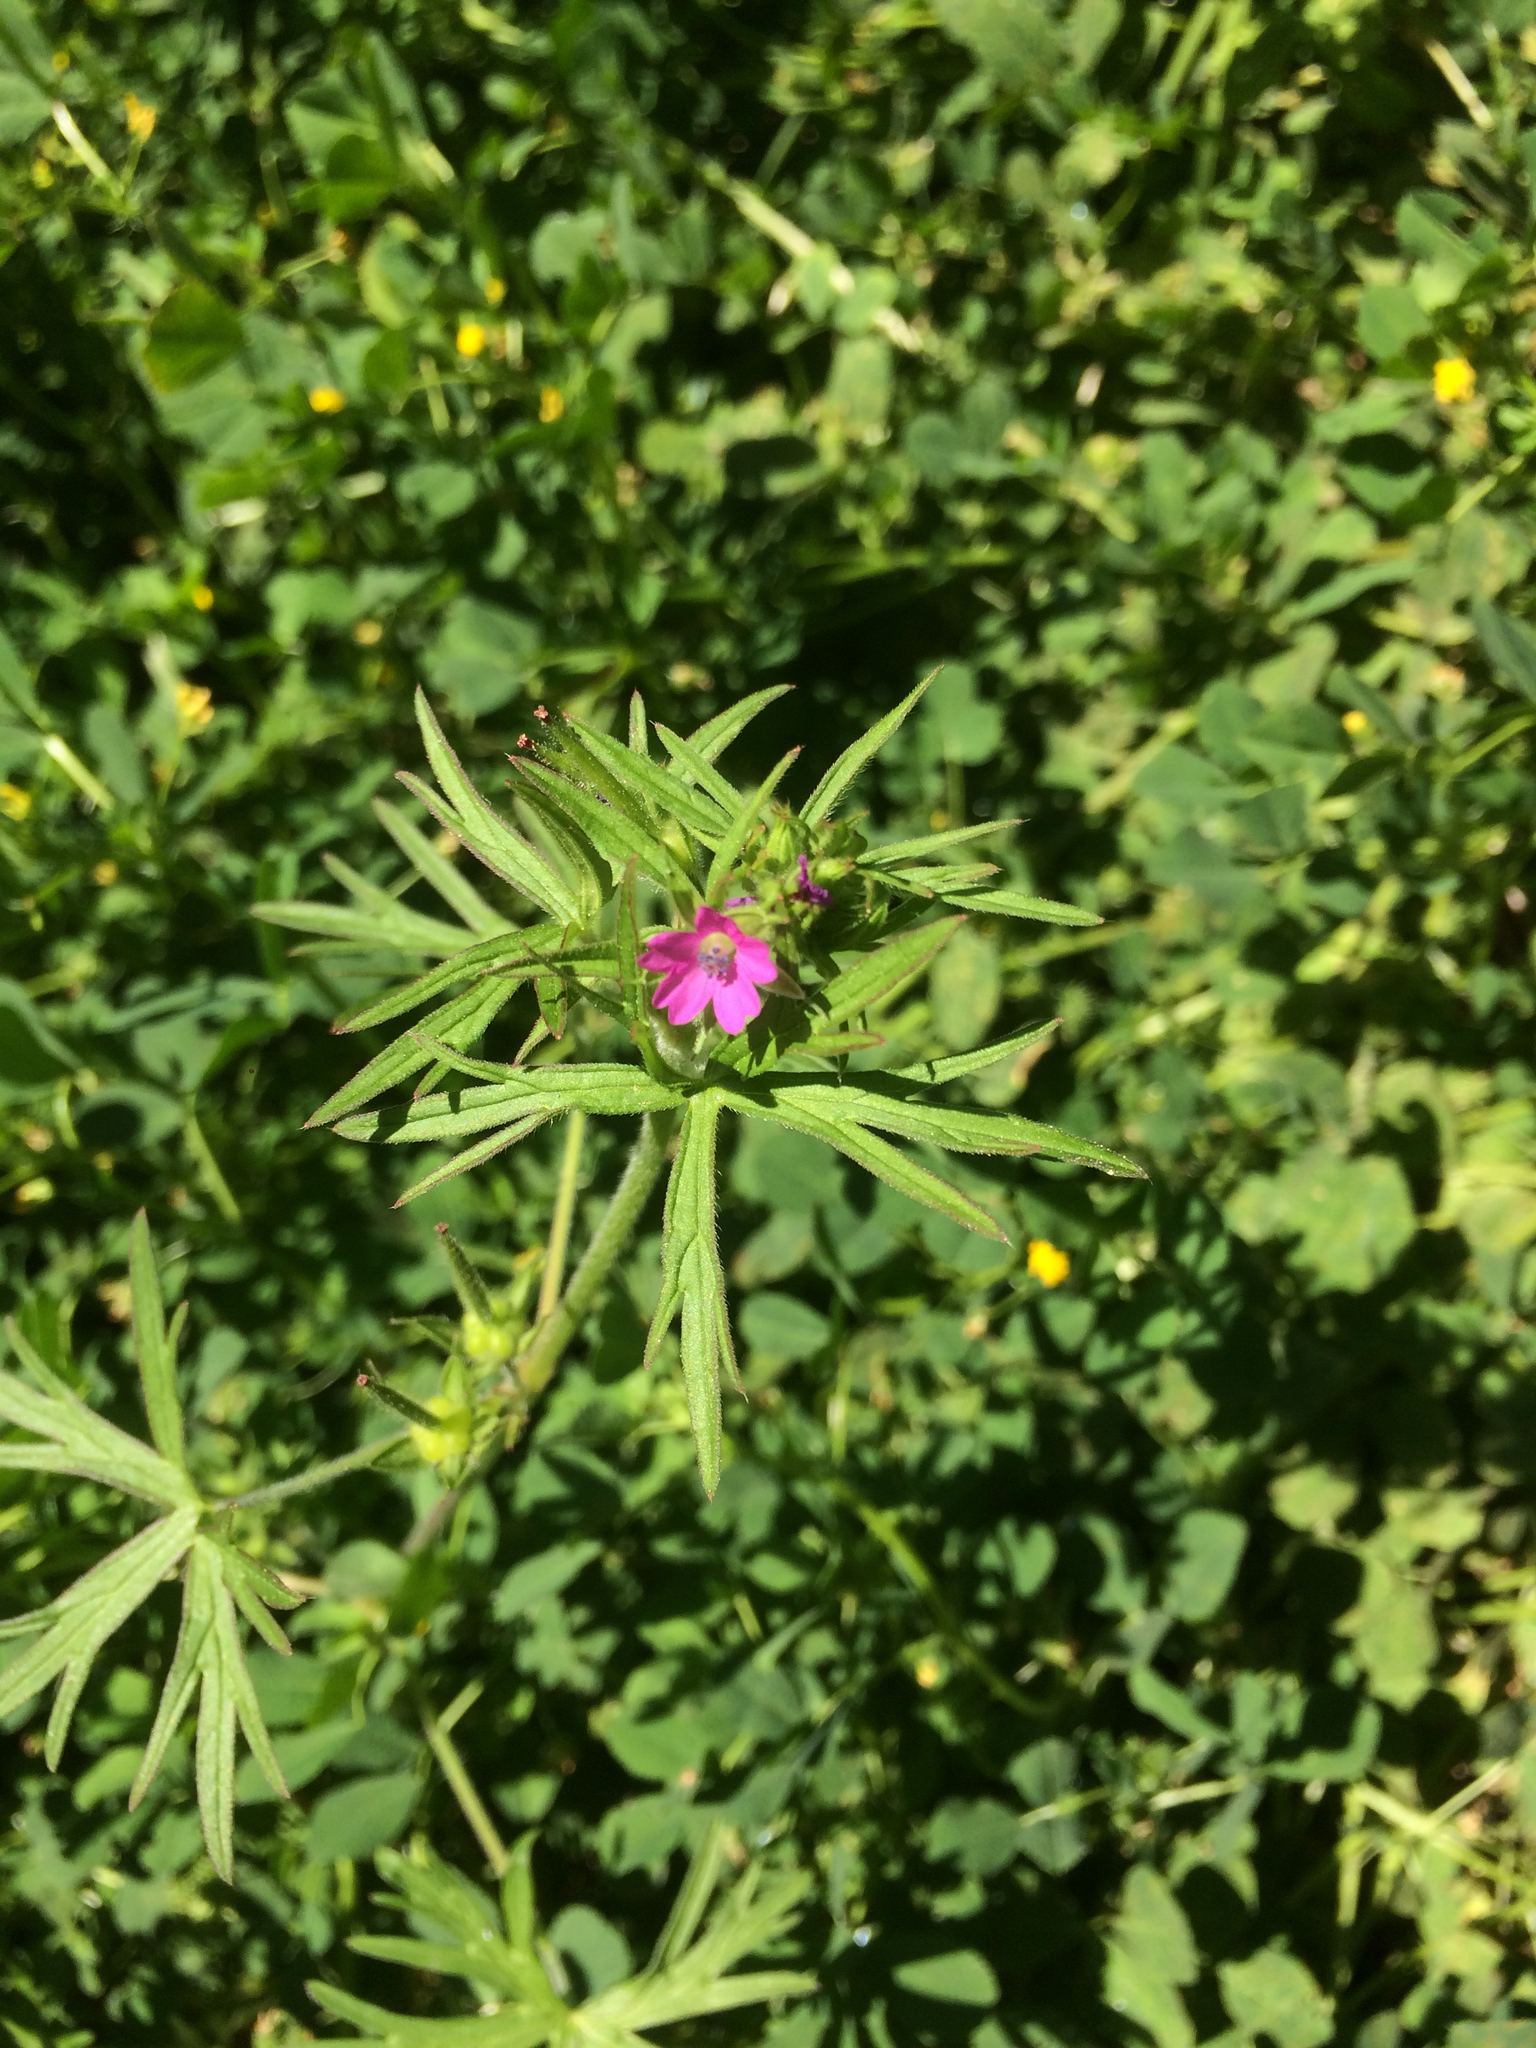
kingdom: Plantae
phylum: Tracheophyta
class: Magnoliopsida
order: Geraniales
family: Geraniaceae
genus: Geranium
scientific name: Geranium dissectum
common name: Cut-leaved crane's-bill
